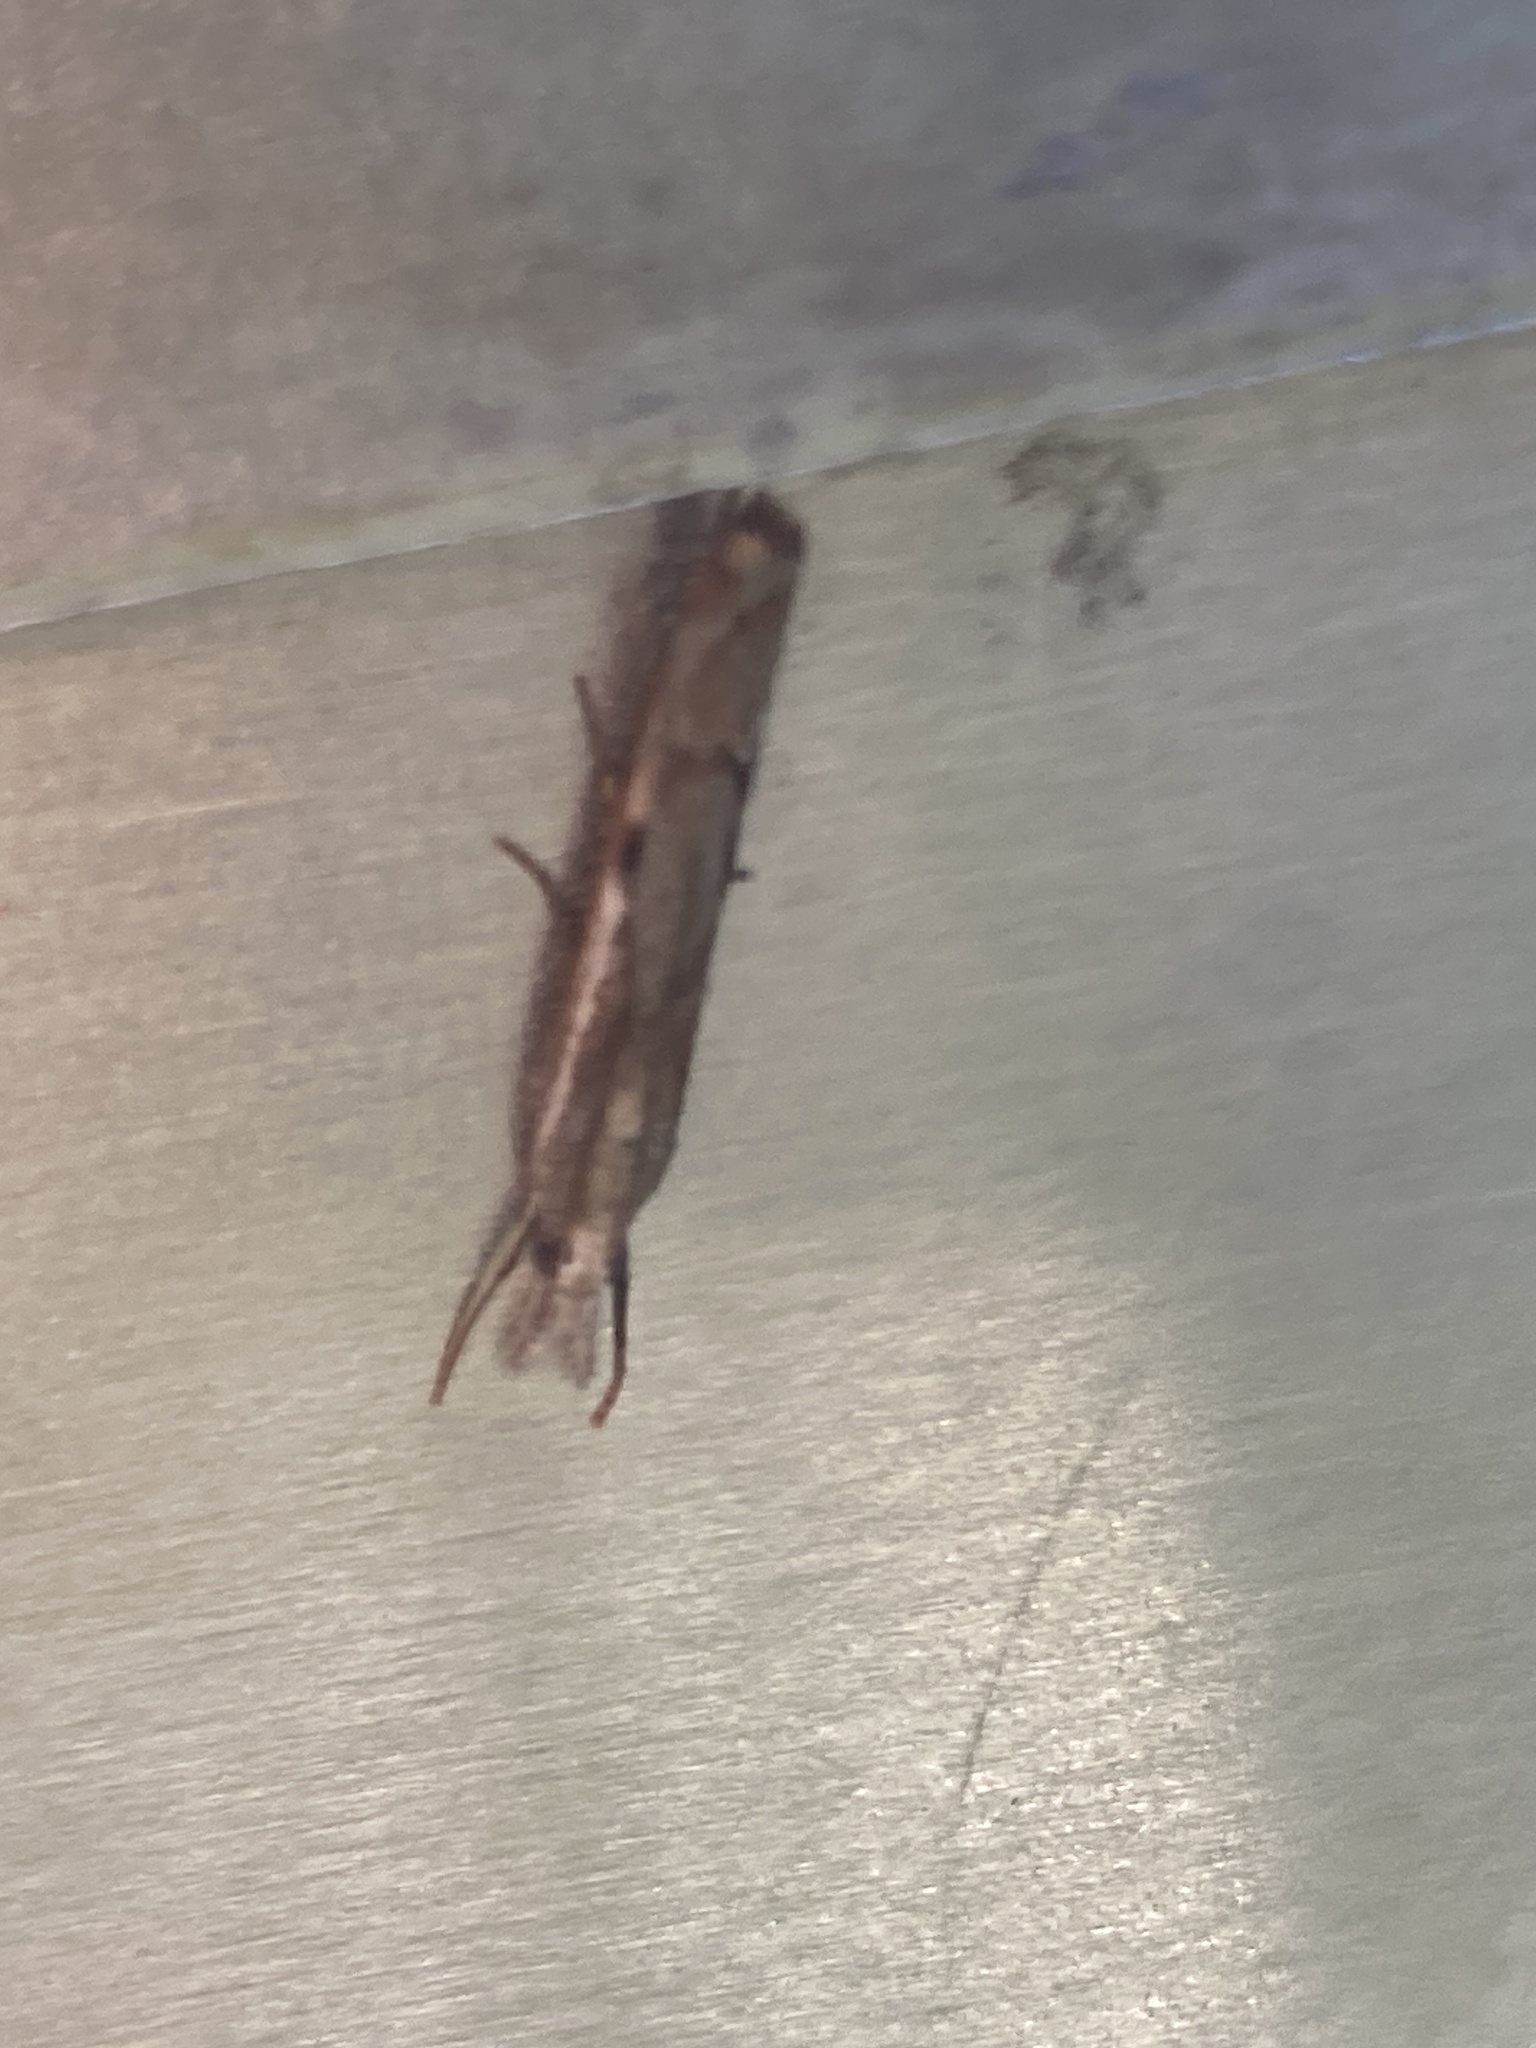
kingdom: Animalia
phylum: Arthropoda
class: Insecta
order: Lepidoptera
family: Crambidae
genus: Agriphila
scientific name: Agriphila geniculea
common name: Elbow-stripe grass-veneer
